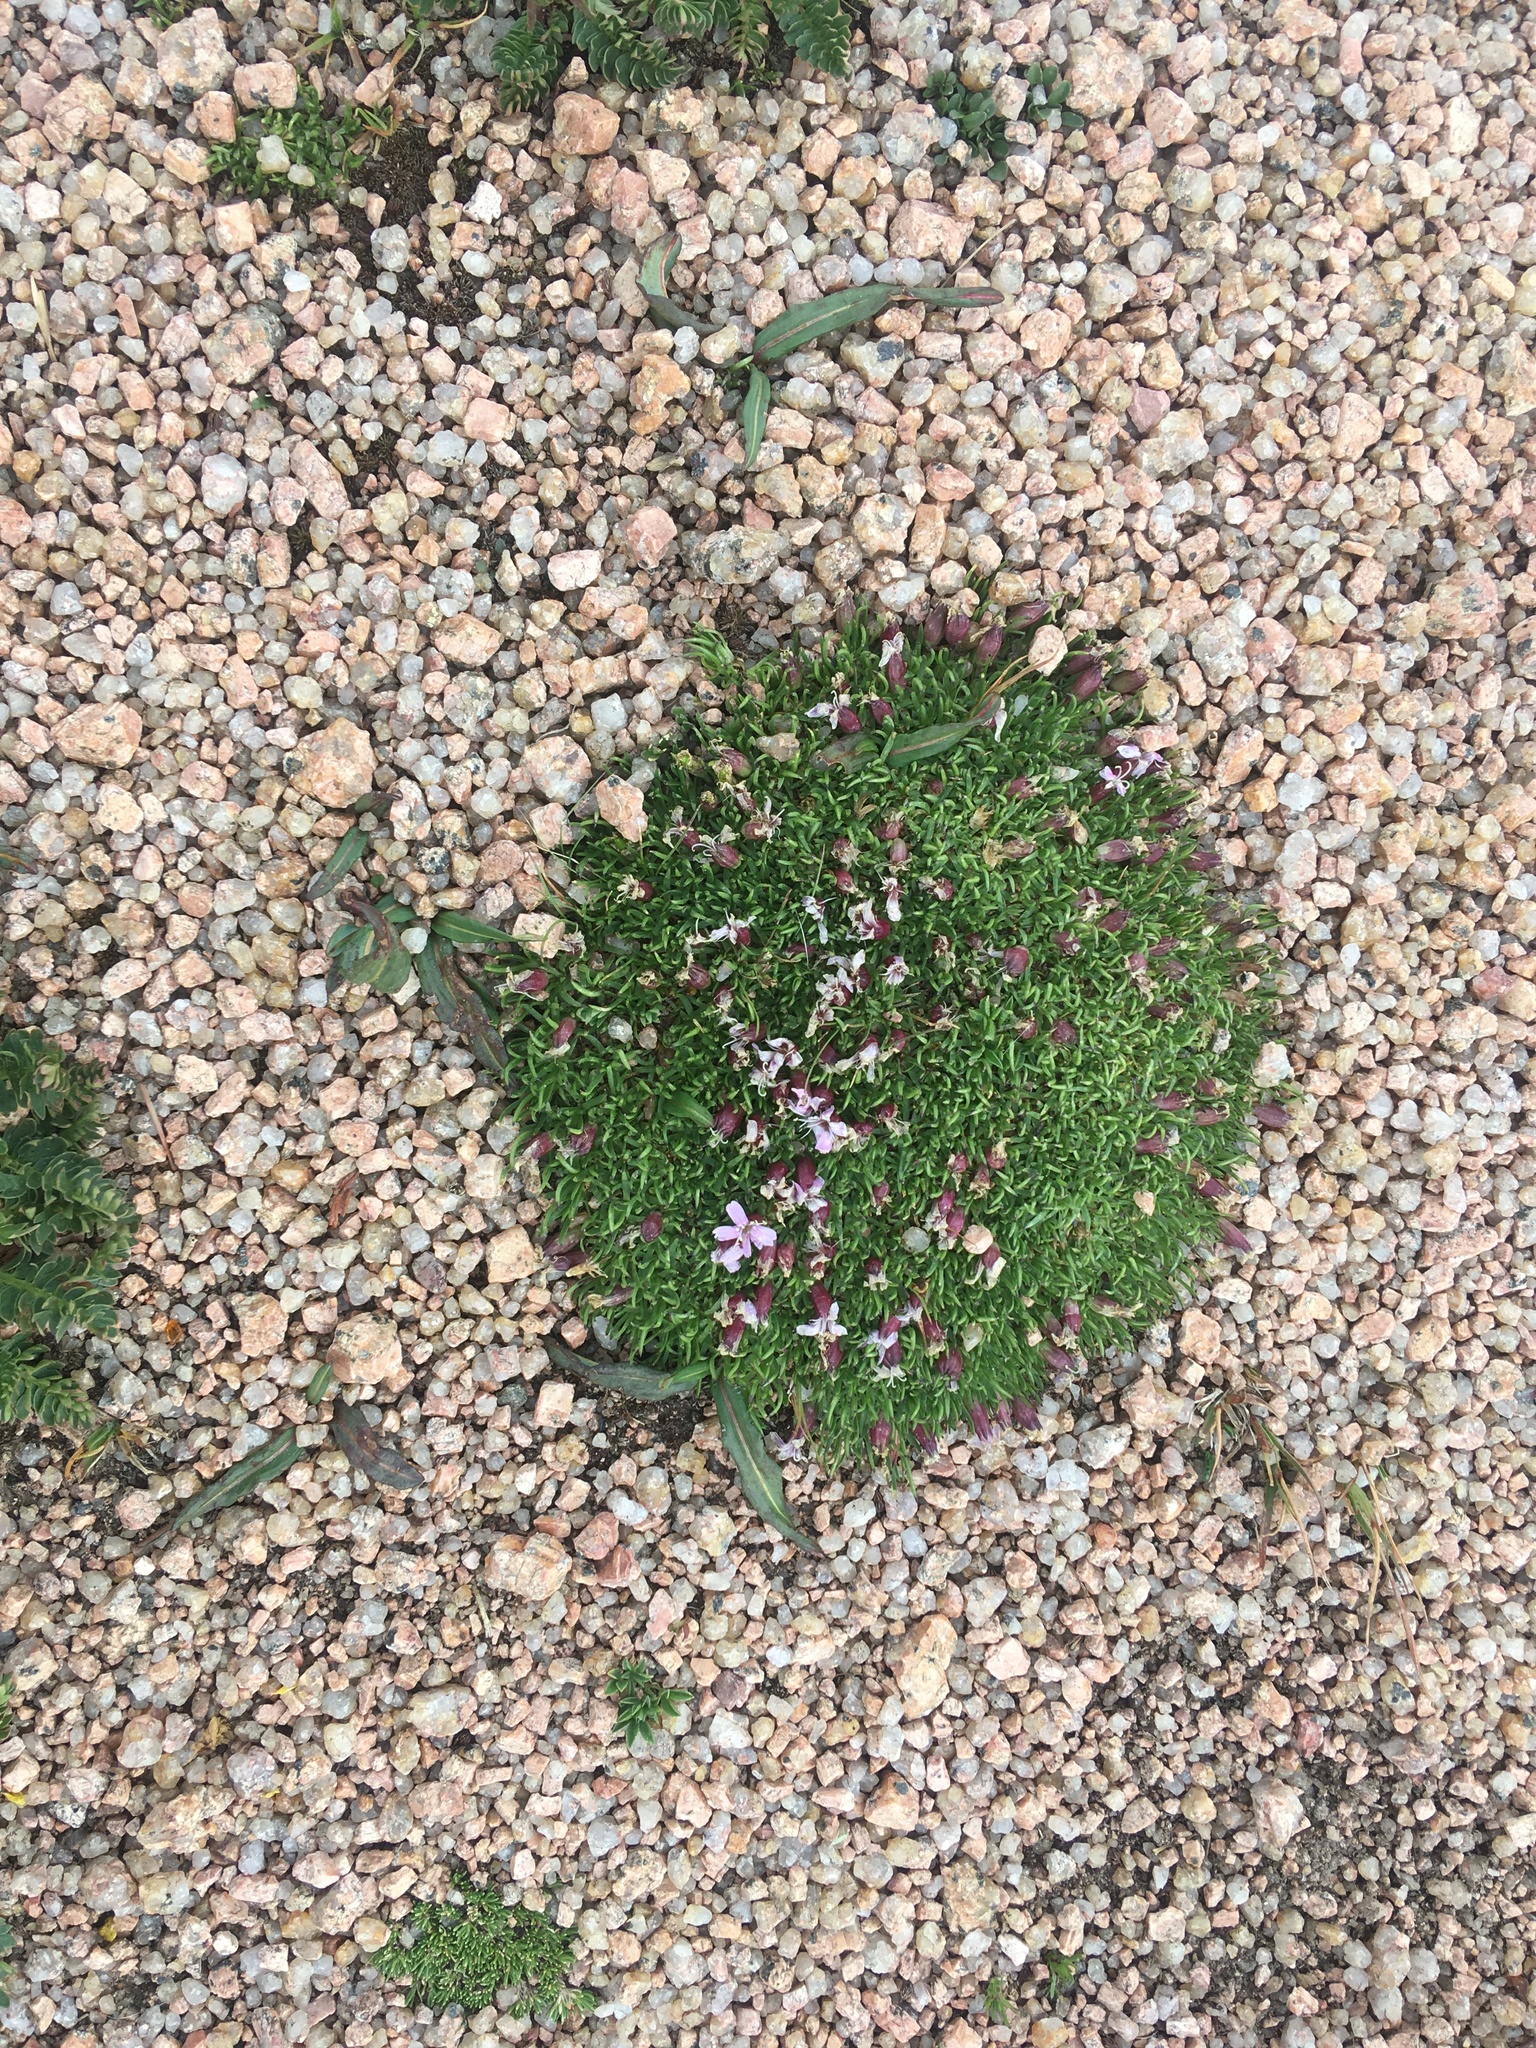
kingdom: Plantae
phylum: Tracheophyta
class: Magnoliopsida
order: Caryophyllales
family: Caryophyllaceae
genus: Silene
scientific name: Silene acaulis
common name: Moss campion
